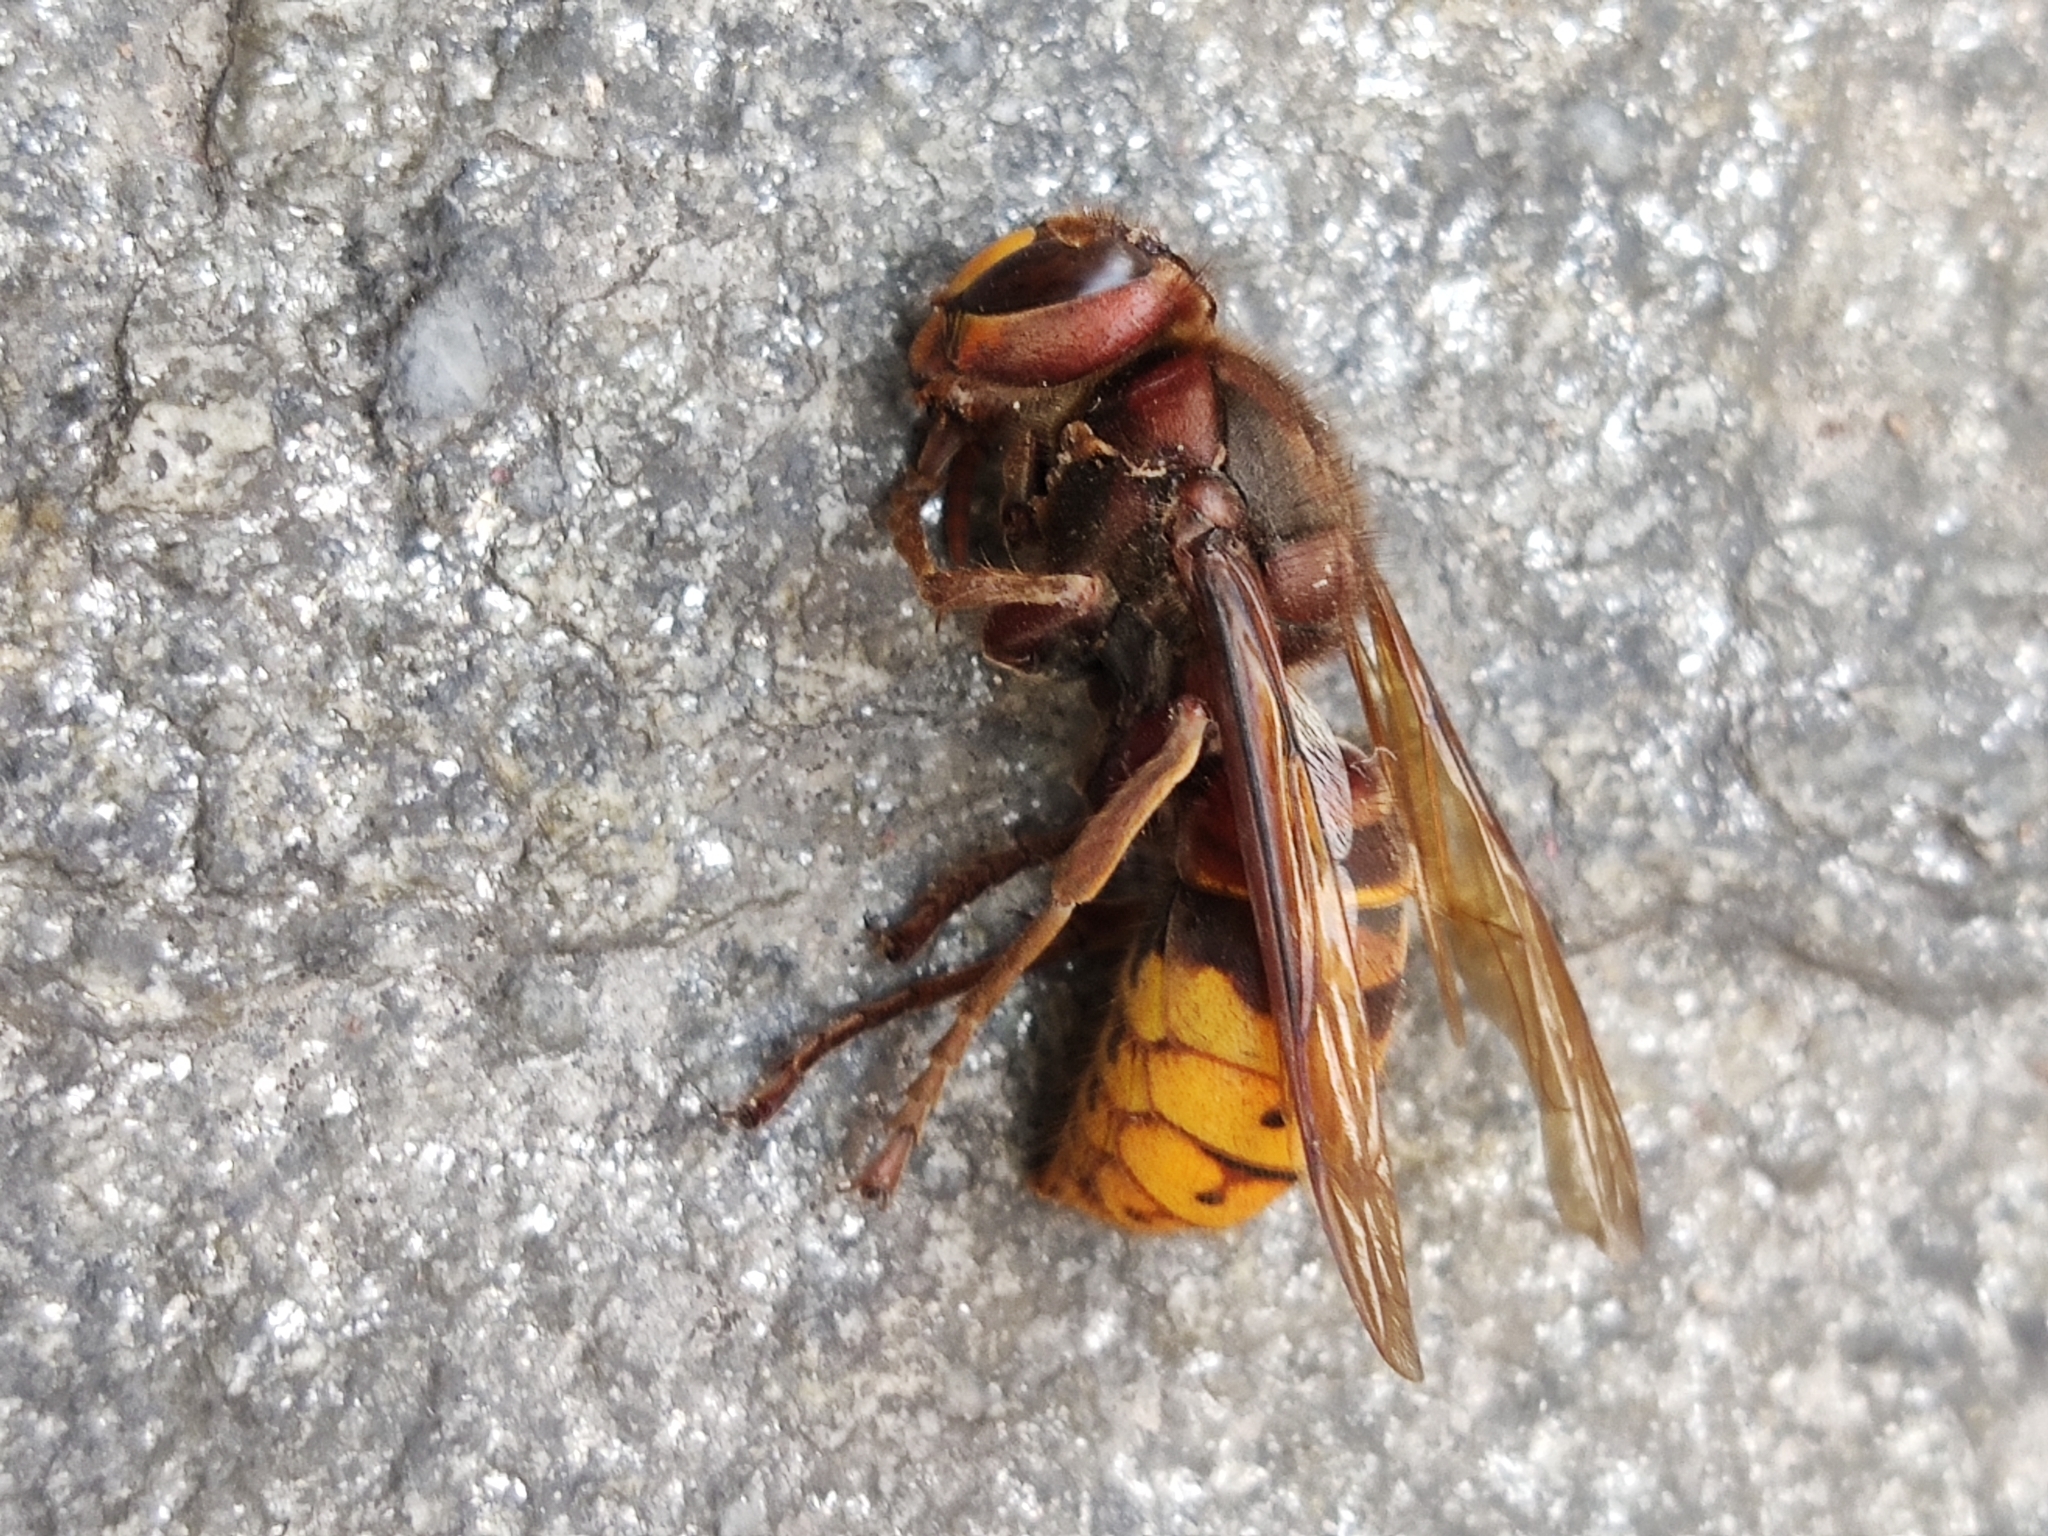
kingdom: Animalia
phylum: Arthropoda
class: Insecta
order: Hymenoptera
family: Vespidae
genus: Vespa
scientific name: Vespa crabro
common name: Hornet
